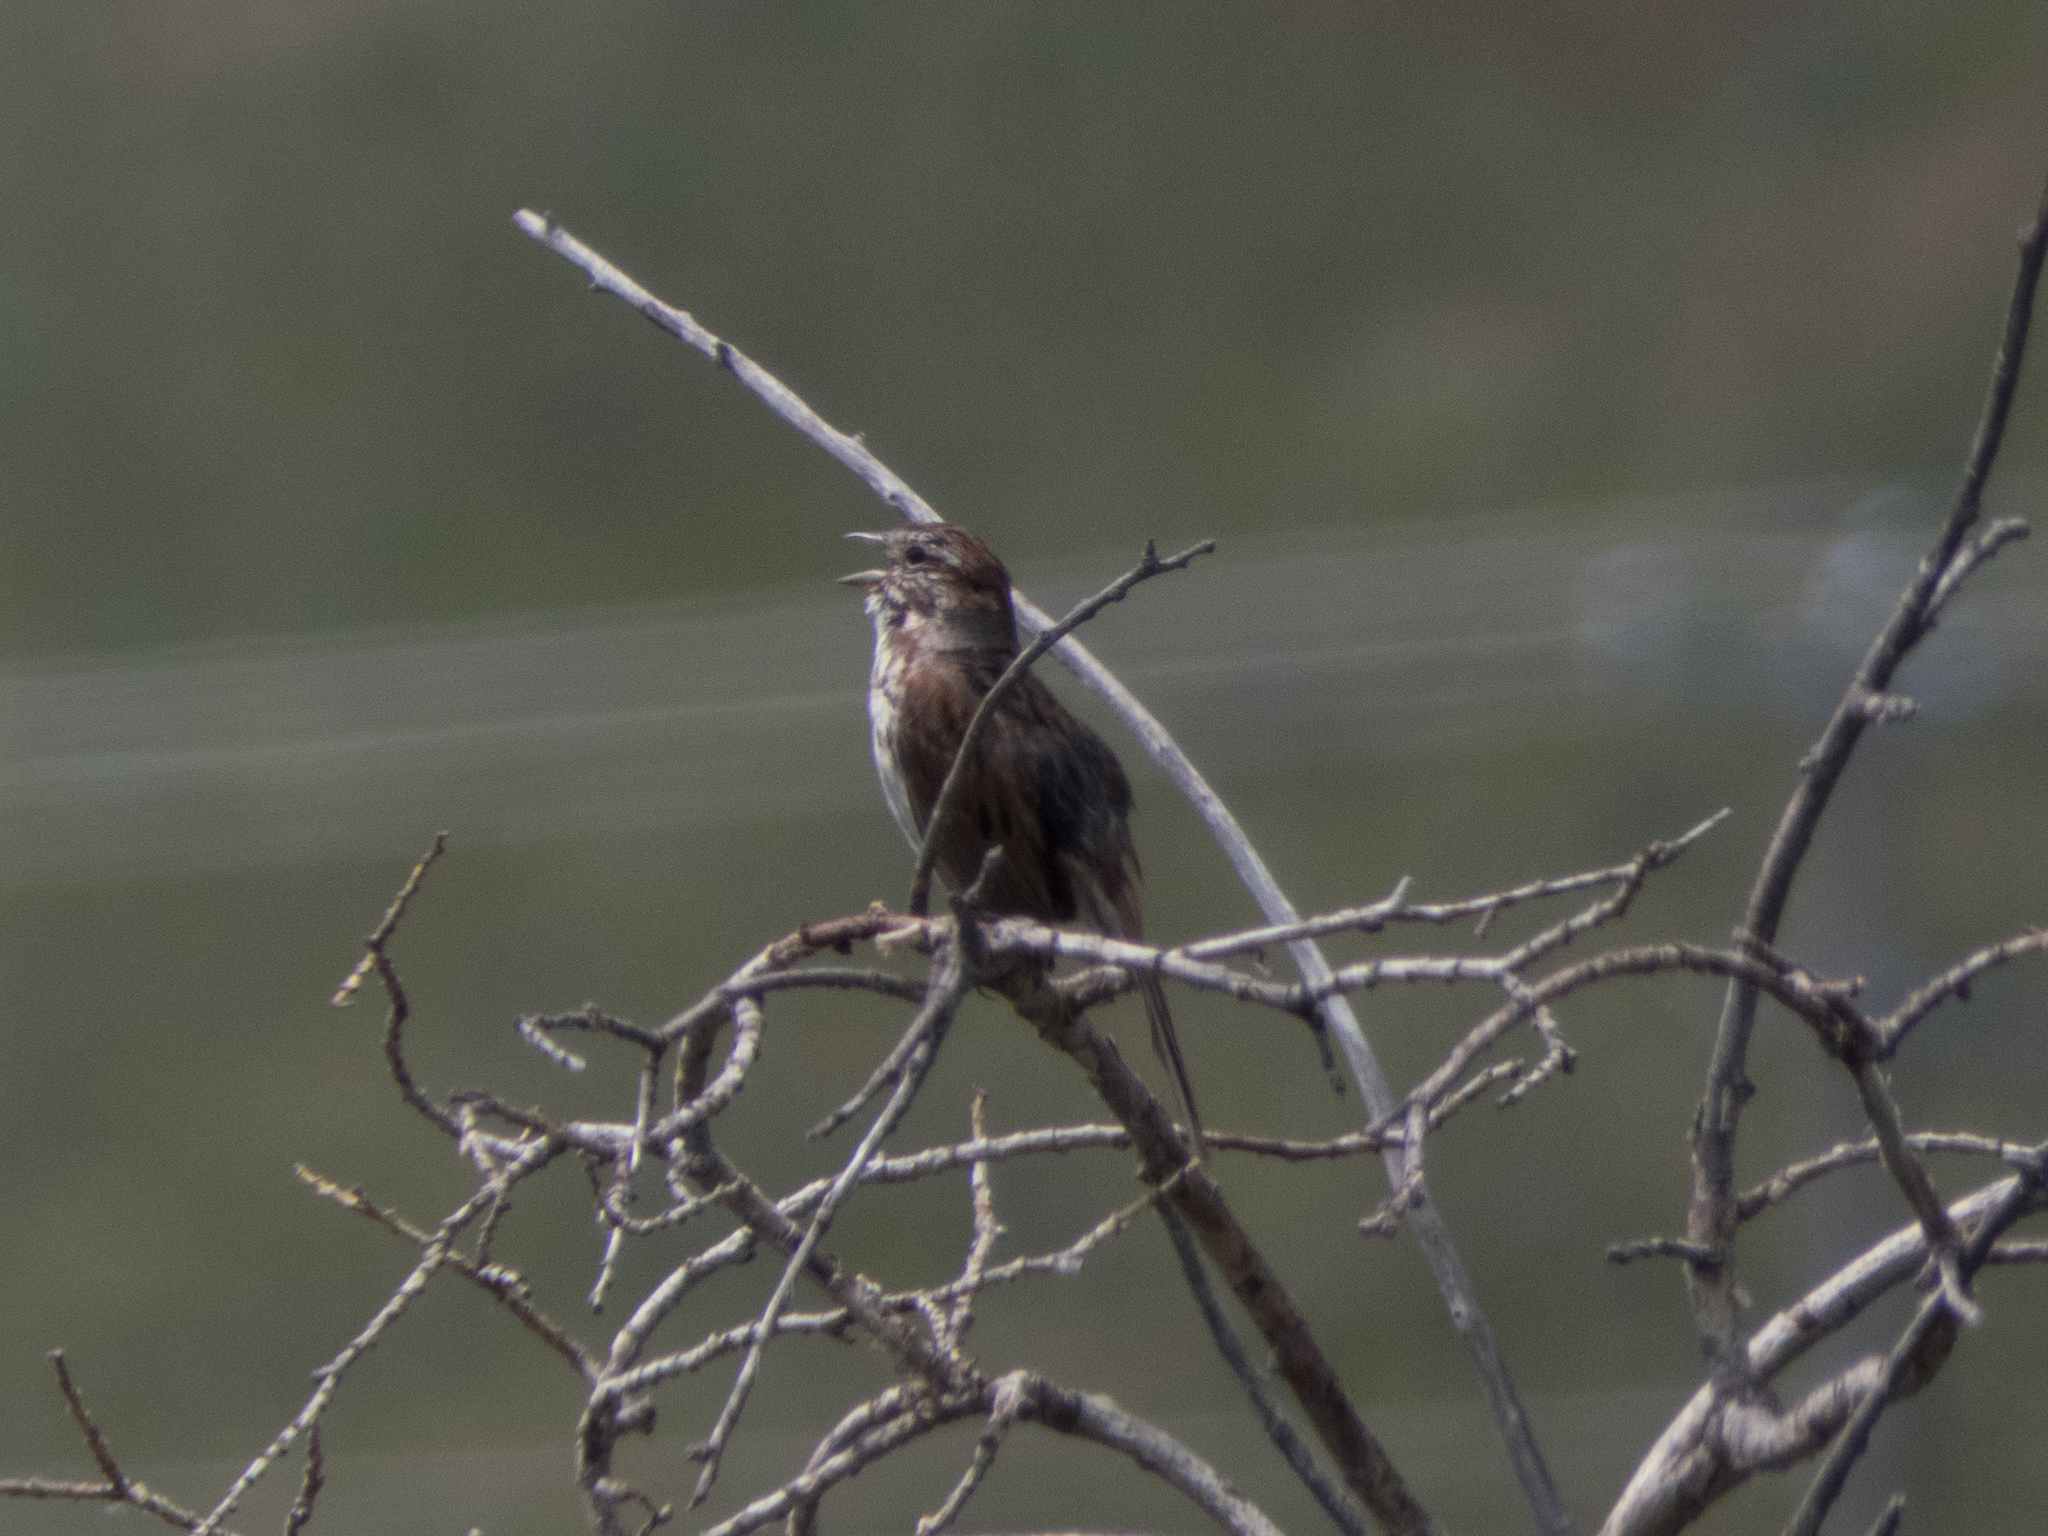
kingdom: Animalia
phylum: Chordata
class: Aves
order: Passeriformes
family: Passerellidae
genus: Melospiza
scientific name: Melospiza melodia
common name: Song sparrow
